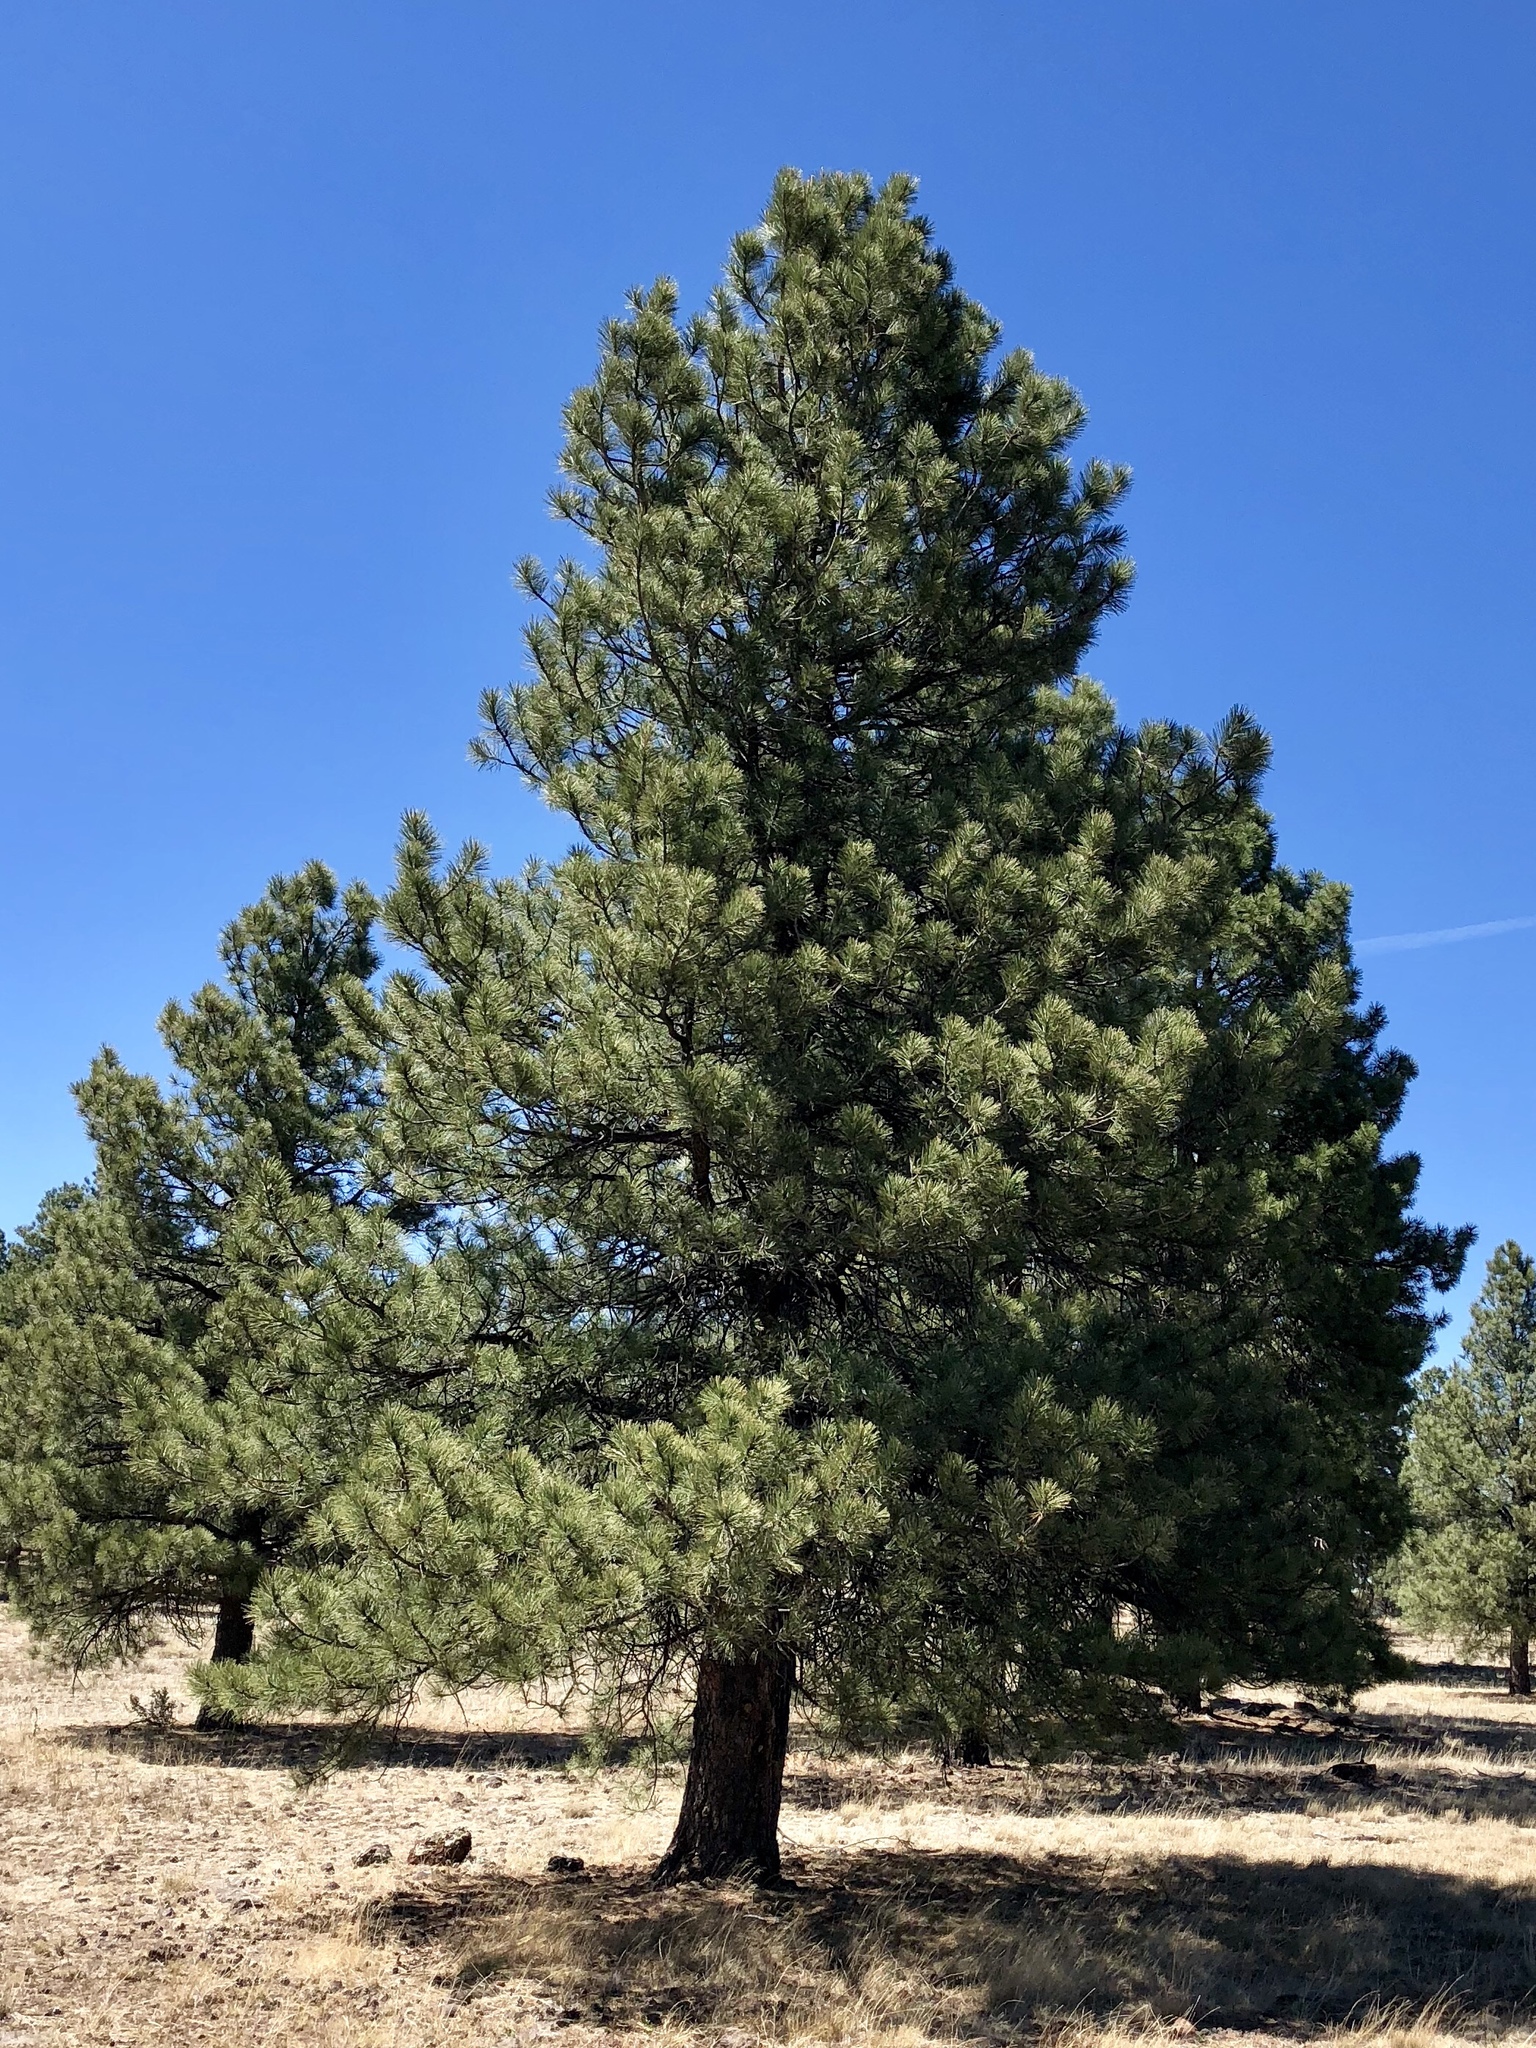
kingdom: Plantae
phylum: Tracheophyta
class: Pinopsida
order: Pinales
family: Pinaceae
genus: Pinus
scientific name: Pinus ponderosa
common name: Western yellow-pine
